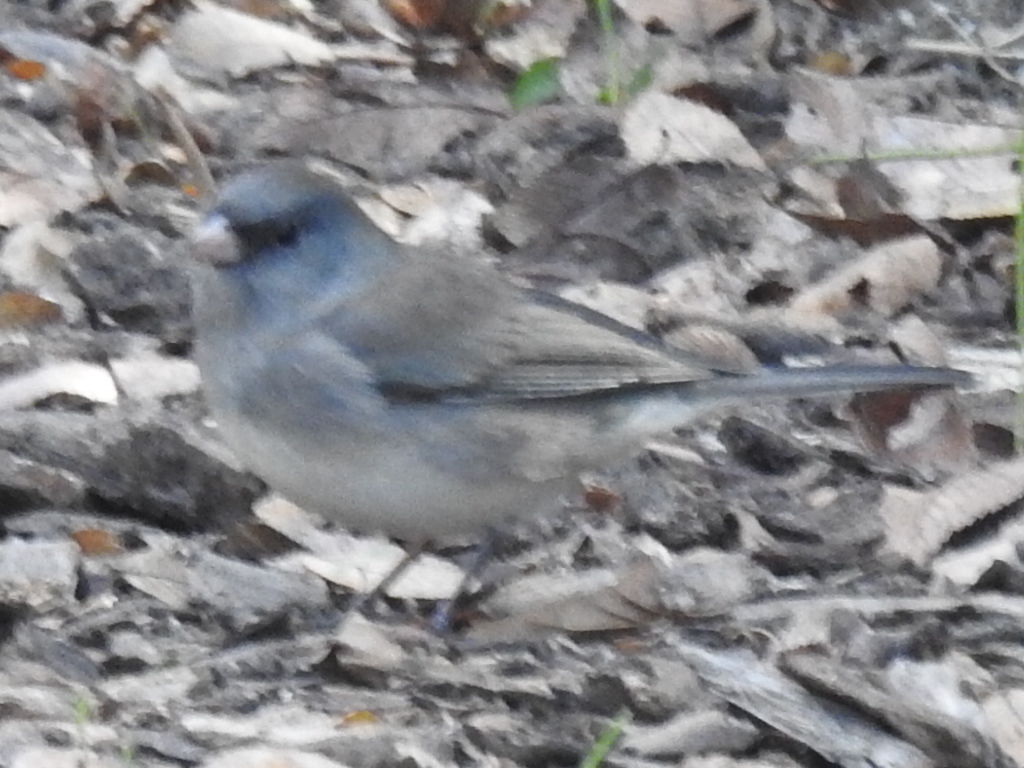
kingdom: Animalia
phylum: Chordata
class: Aves
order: Passeriformes
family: Passerellidae
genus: Junco
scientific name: Junco hyemalis
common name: Dark-eyed junco
